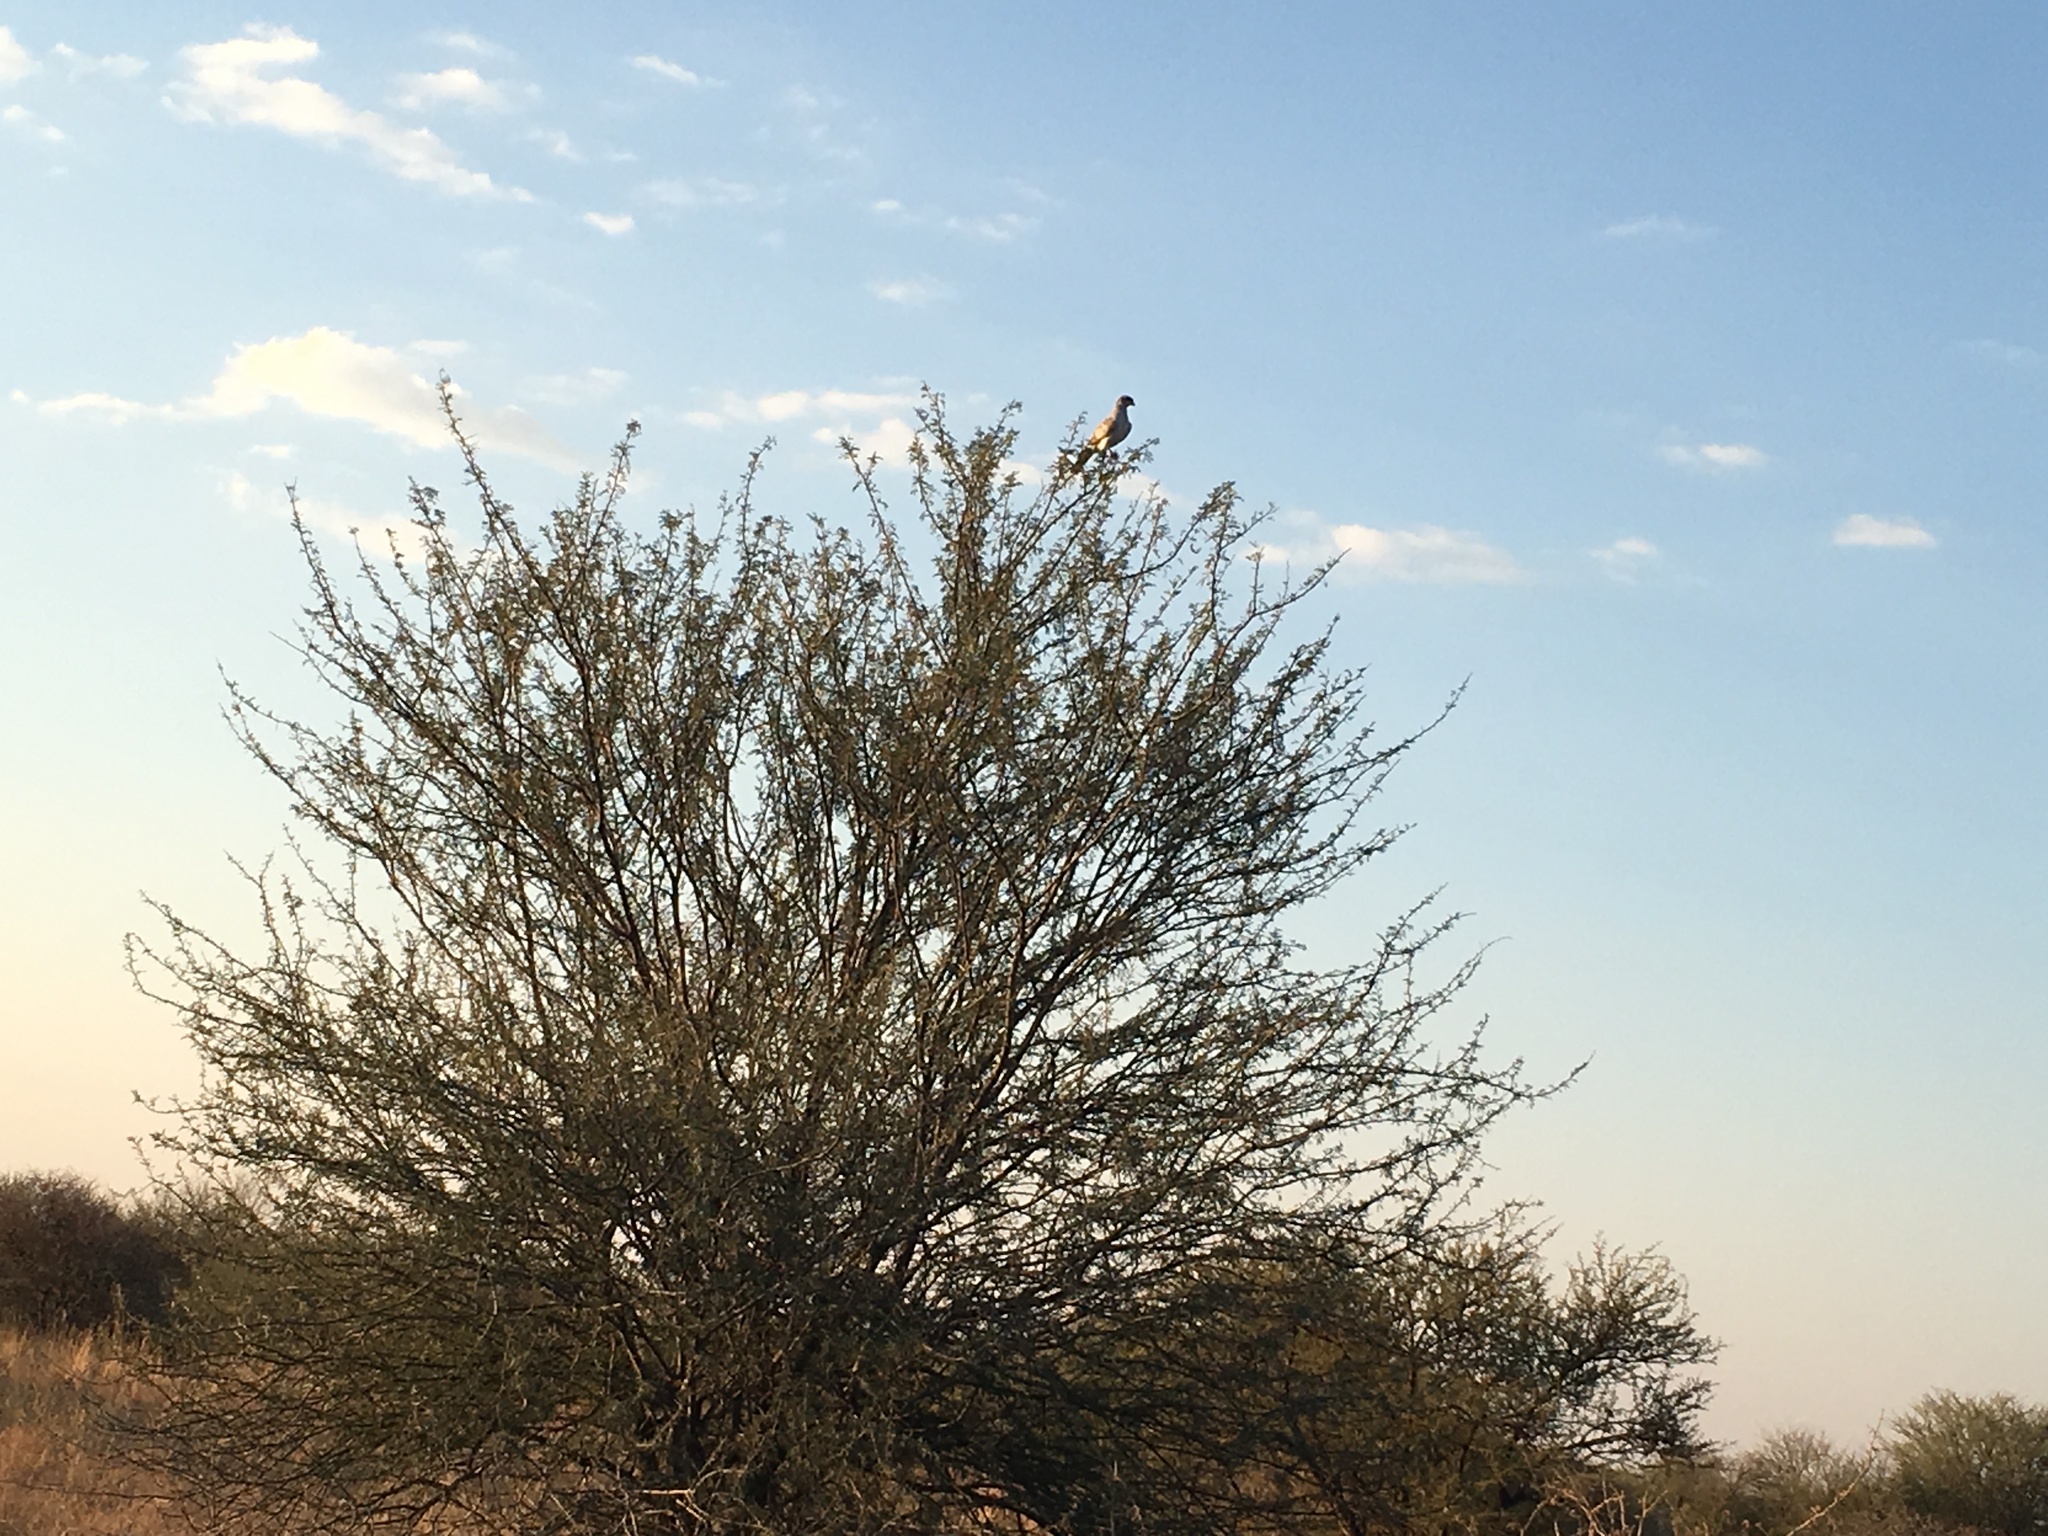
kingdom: Animalia
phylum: Chordata
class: Aves
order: Accipitriformes
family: Accipitridae
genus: Melierax
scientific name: Melierax canorus
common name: Pale chanting-goshawk
